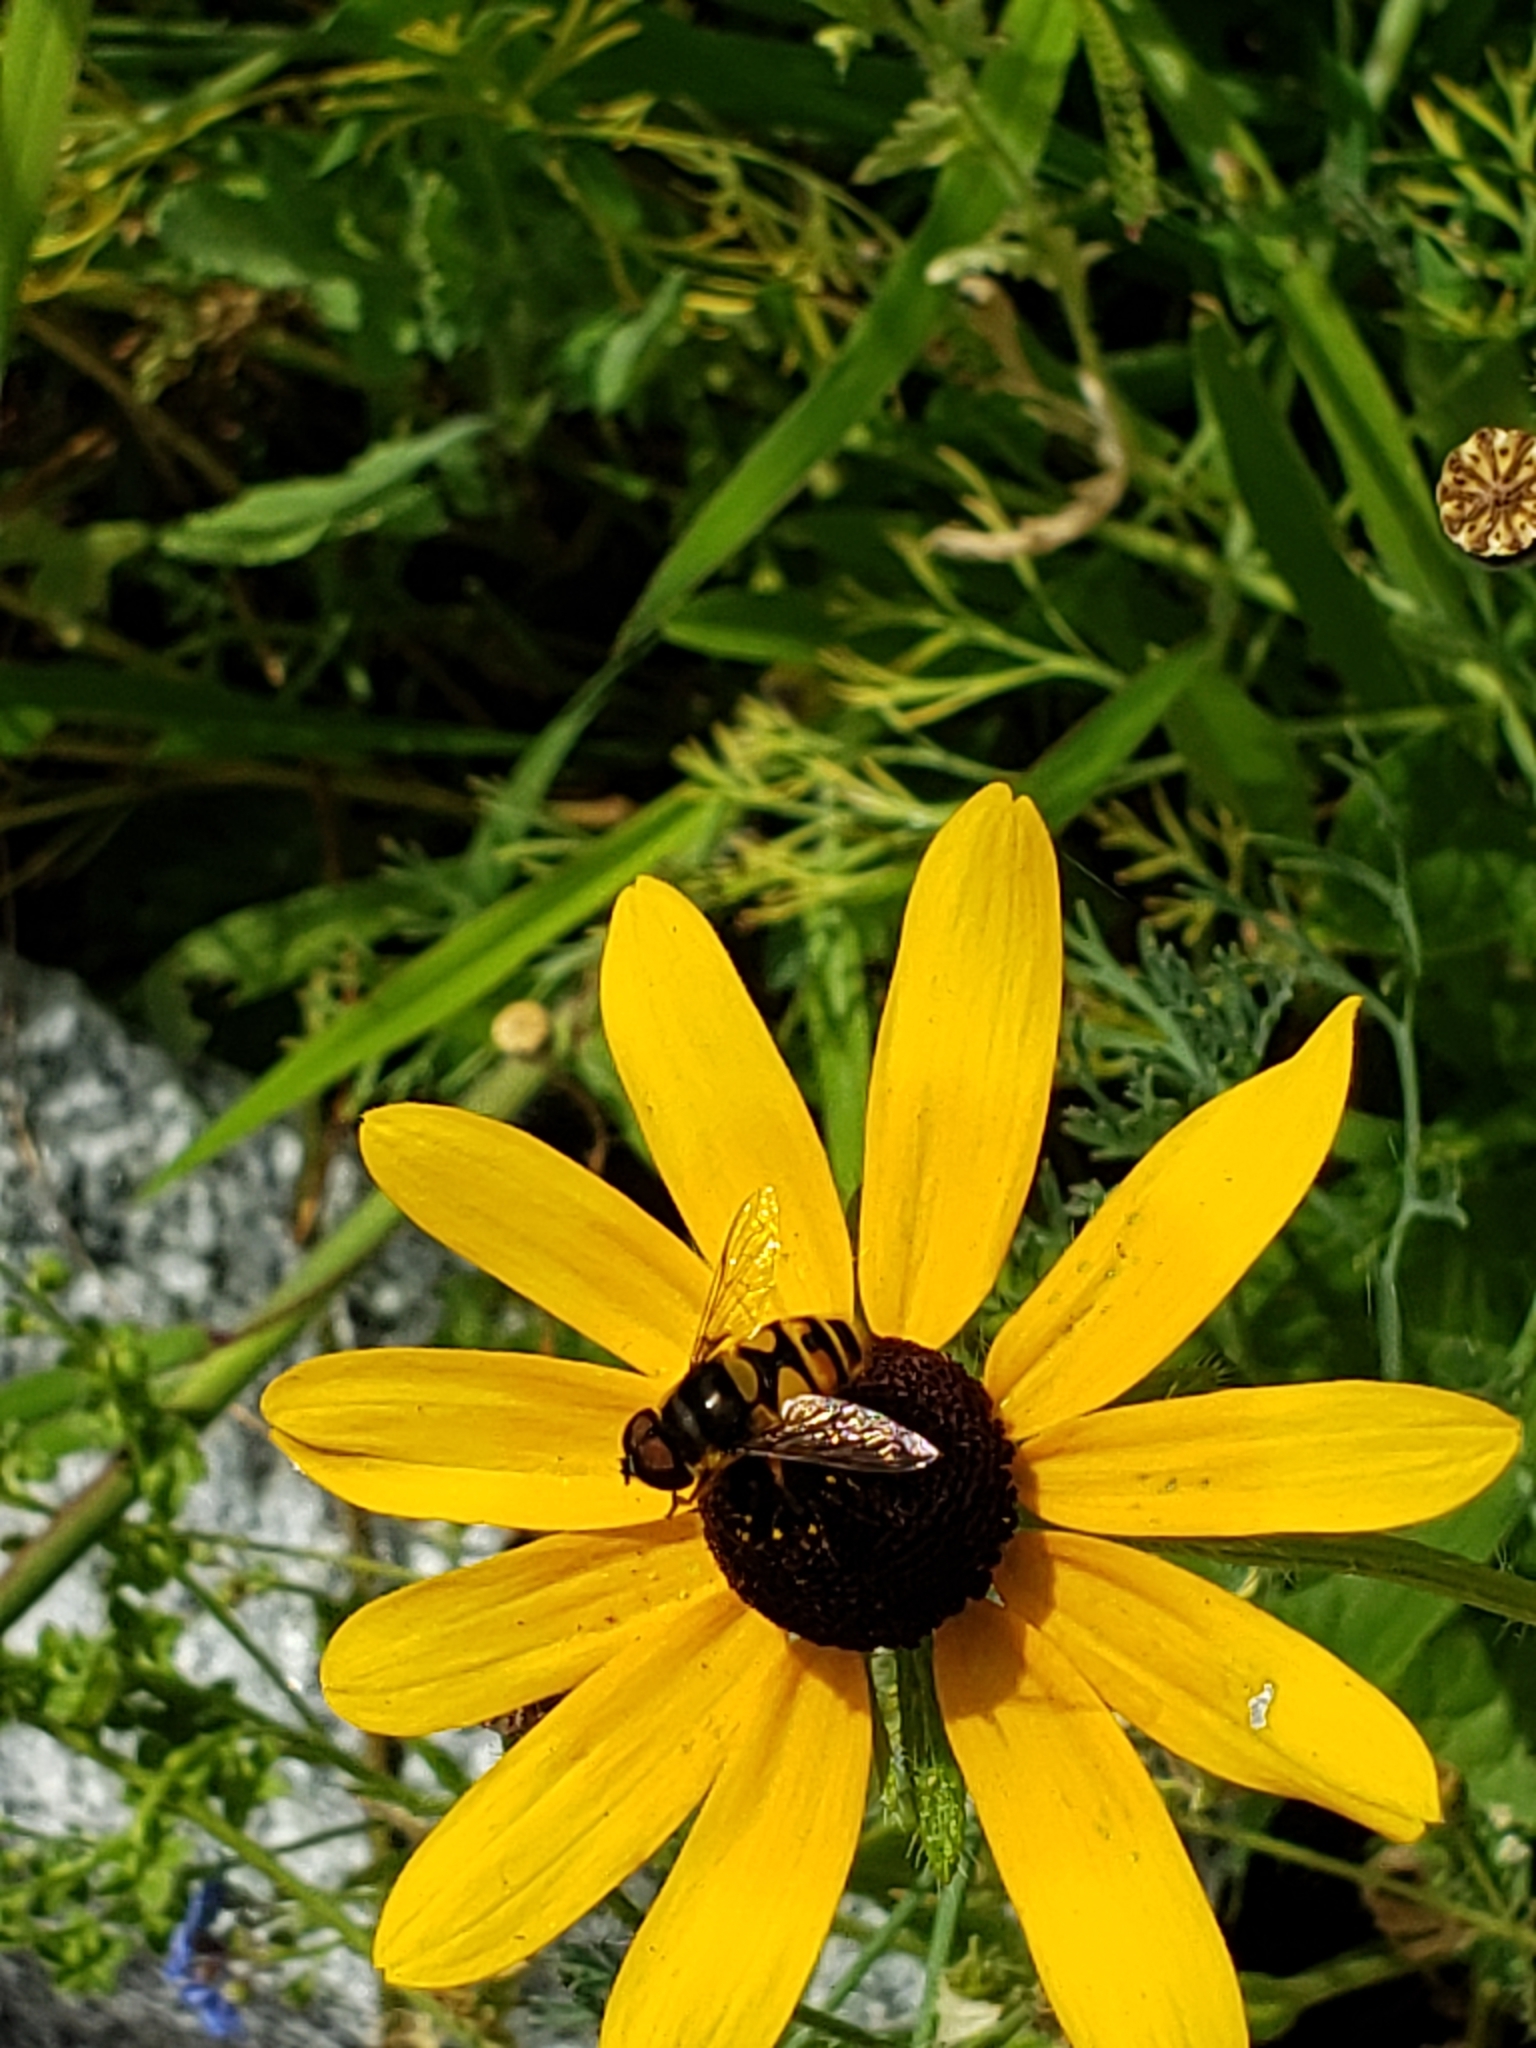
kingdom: Animalia
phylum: Arthropoda
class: Insecta
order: Diptera
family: Syrphidae
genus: Eristalis
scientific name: Eristalis transversa
